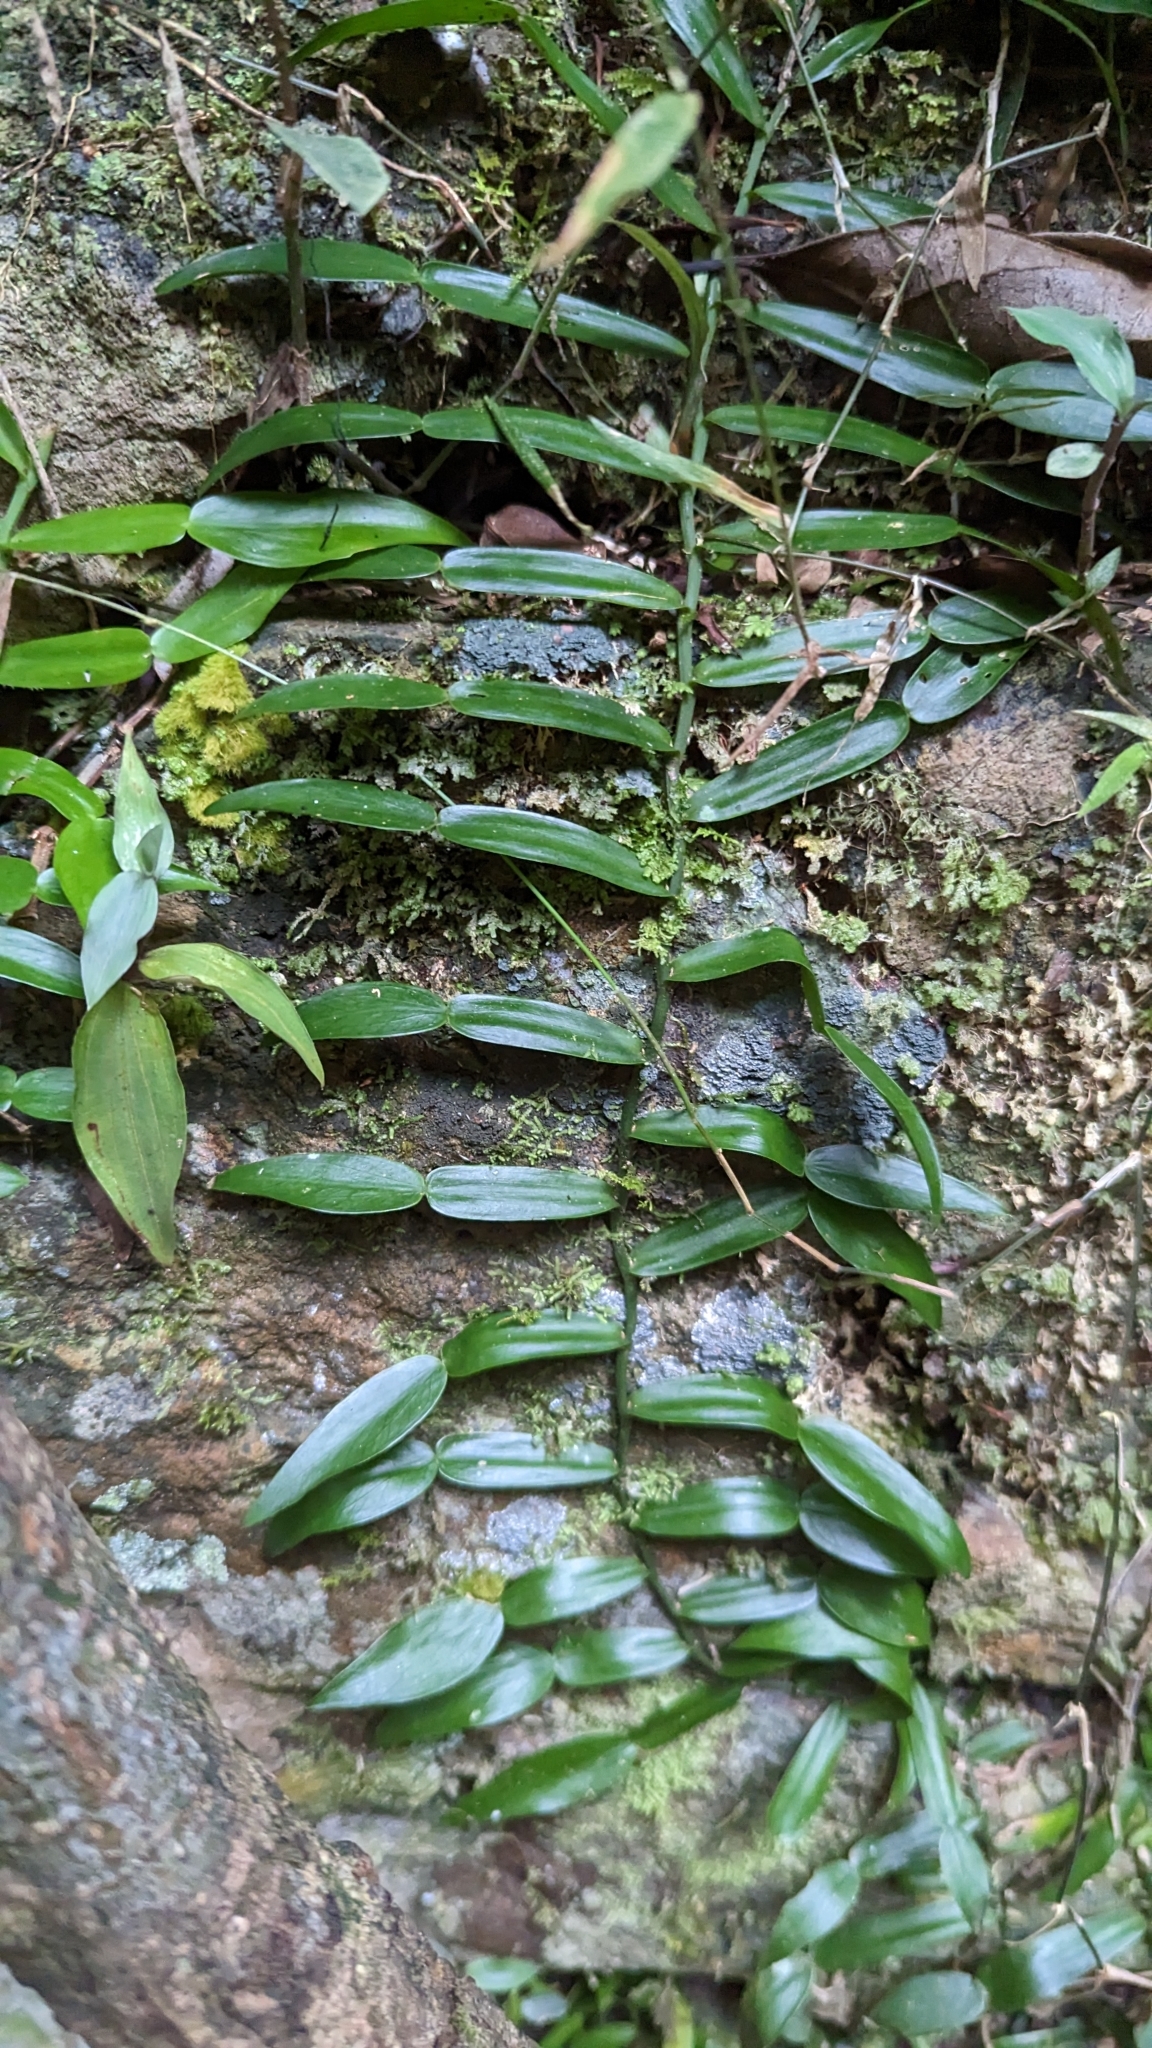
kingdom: Plantae
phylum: Tracheophyta
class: Liliopsida
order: Alismatales
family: Araceae
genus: Pothos
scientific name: Pothos longipes
